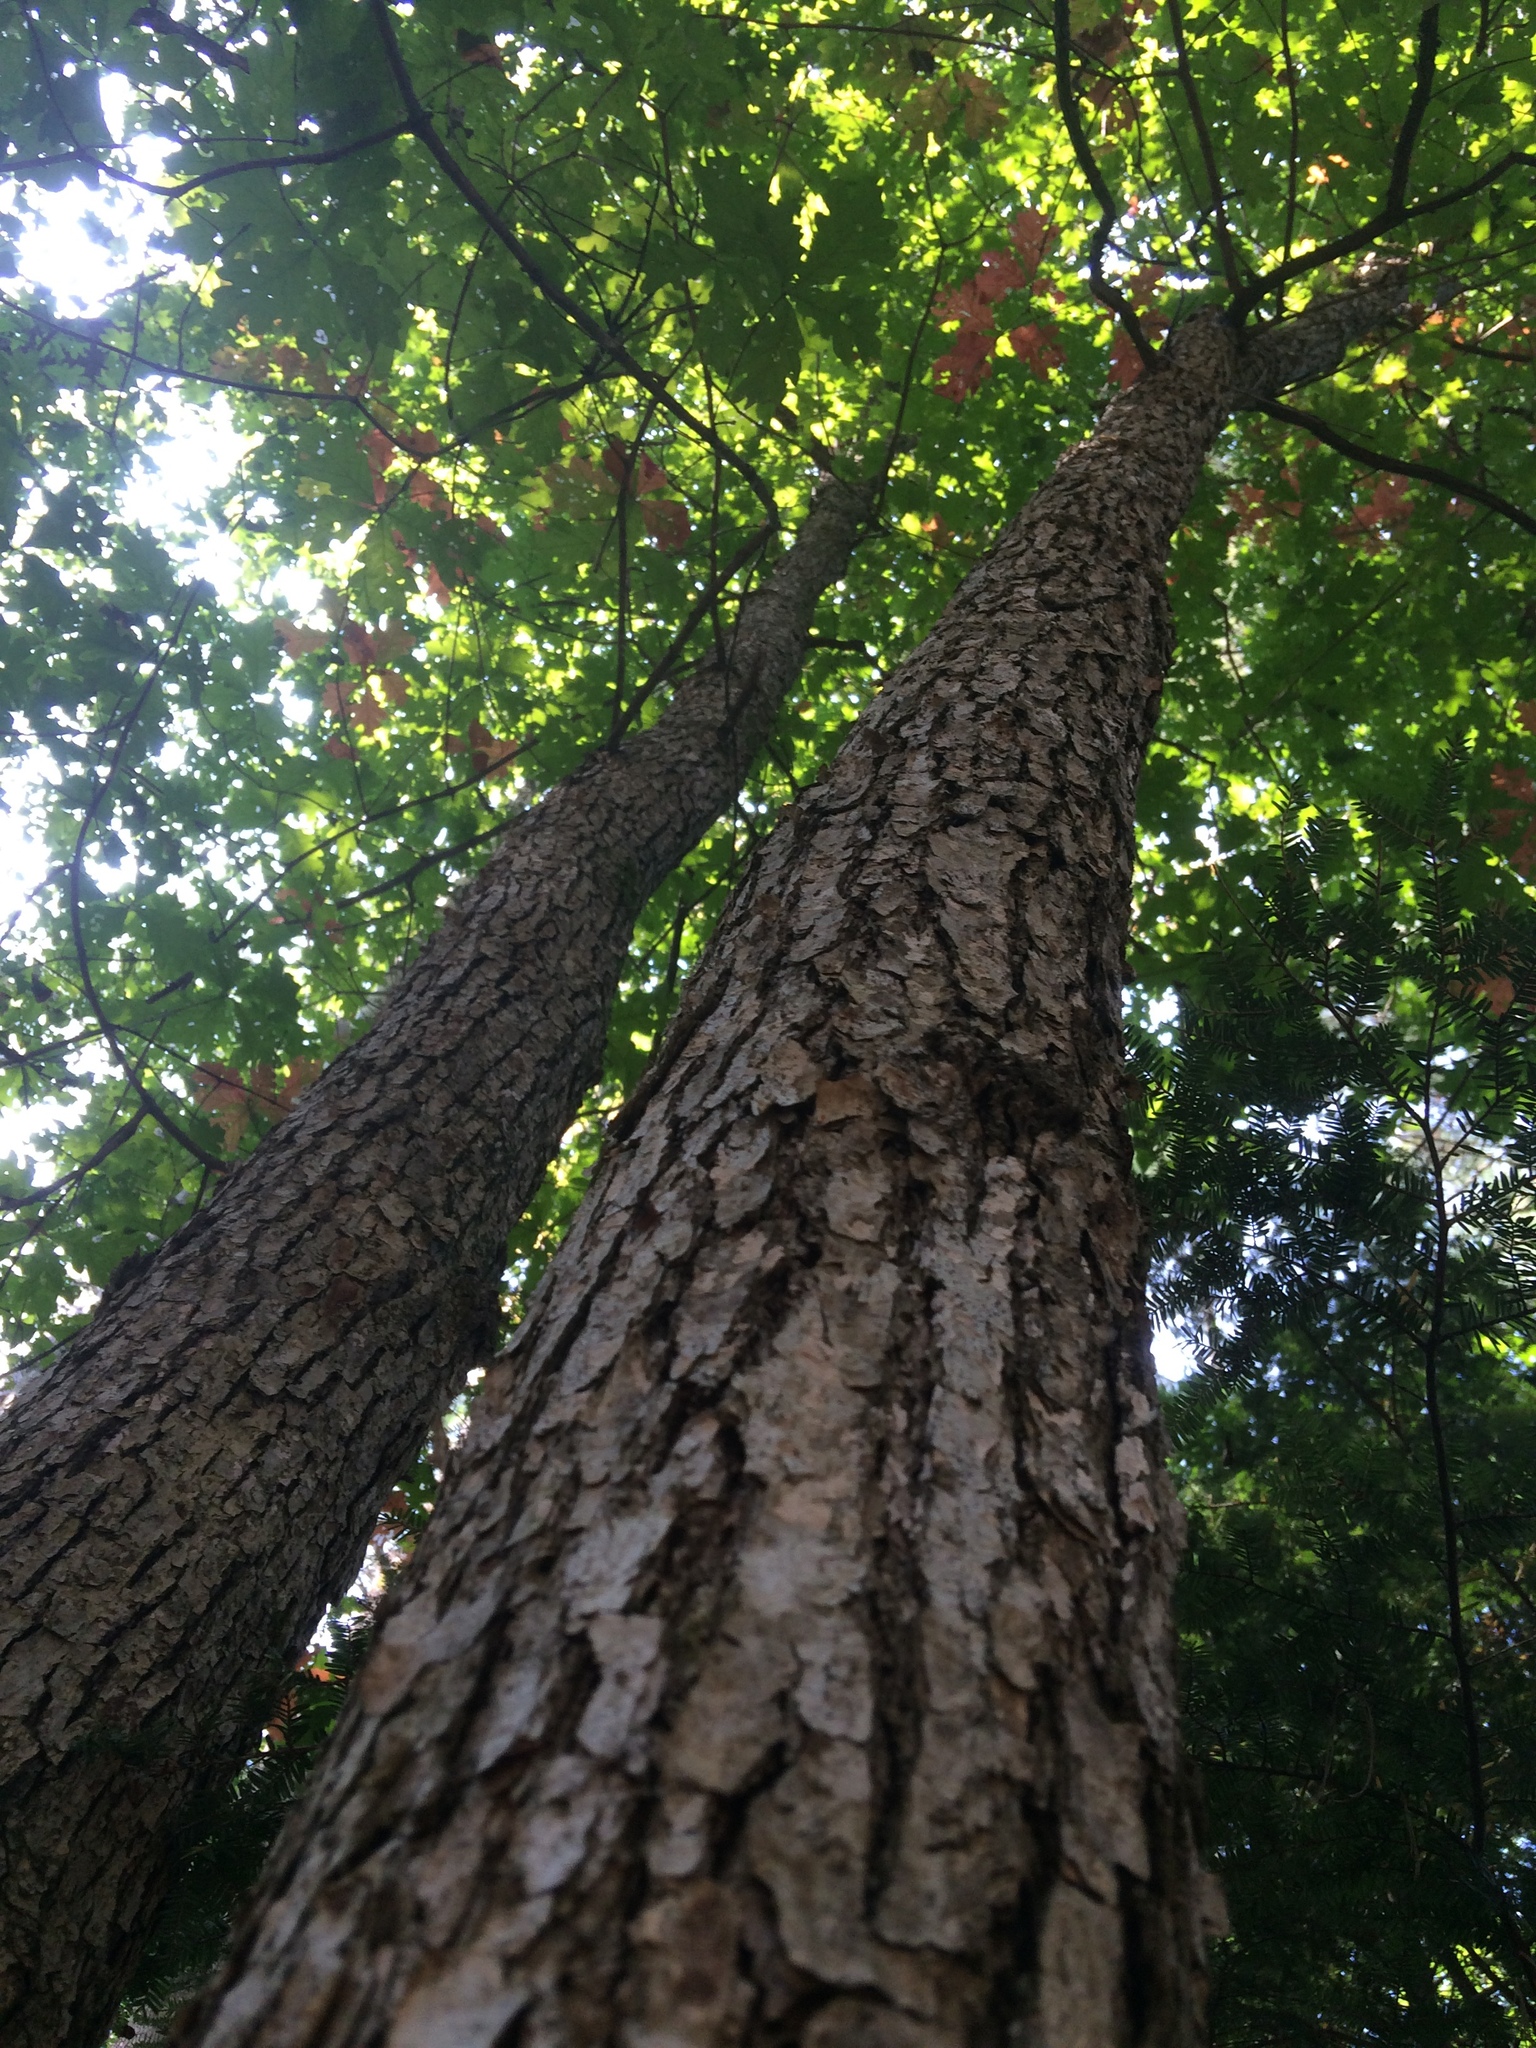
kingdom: Plantae
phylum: Tracheophyta
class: Magnoliopsida
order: Fagales
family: Fagaceae
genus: Quercus
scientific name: Quercus alba
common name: White oak
